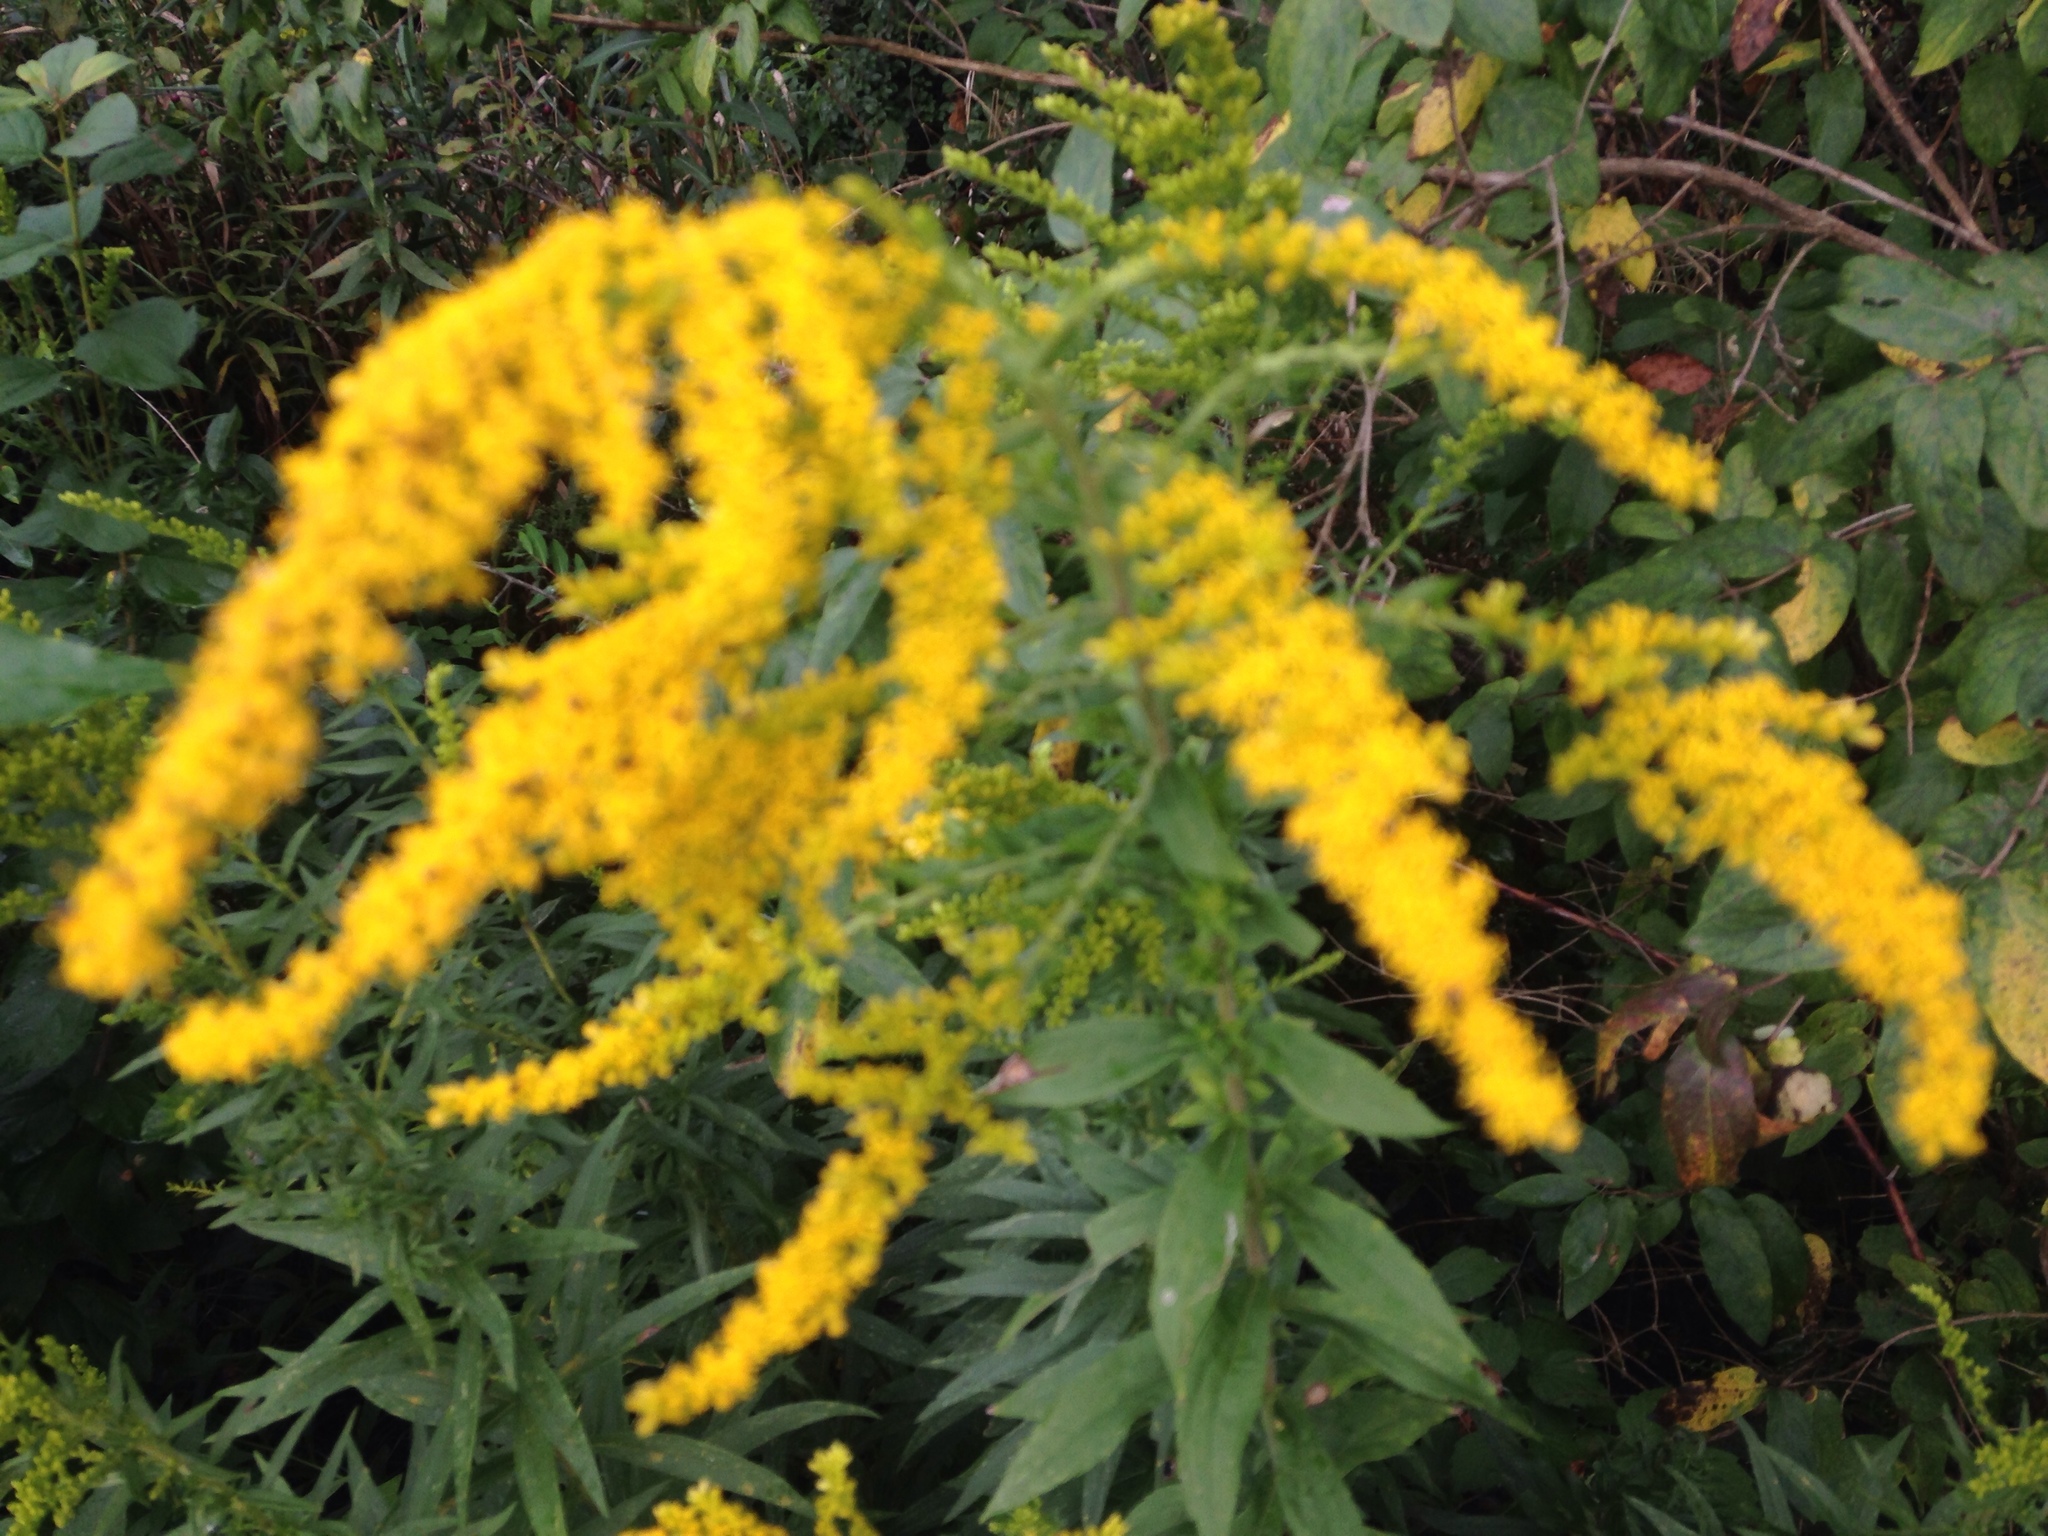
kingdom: Plantae
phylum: Tracheophyta
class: Magnoliopsida
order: Asterales
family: Asteraceae
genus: Solidago
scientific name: Solidago canadensis
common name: Canada goldenrod
